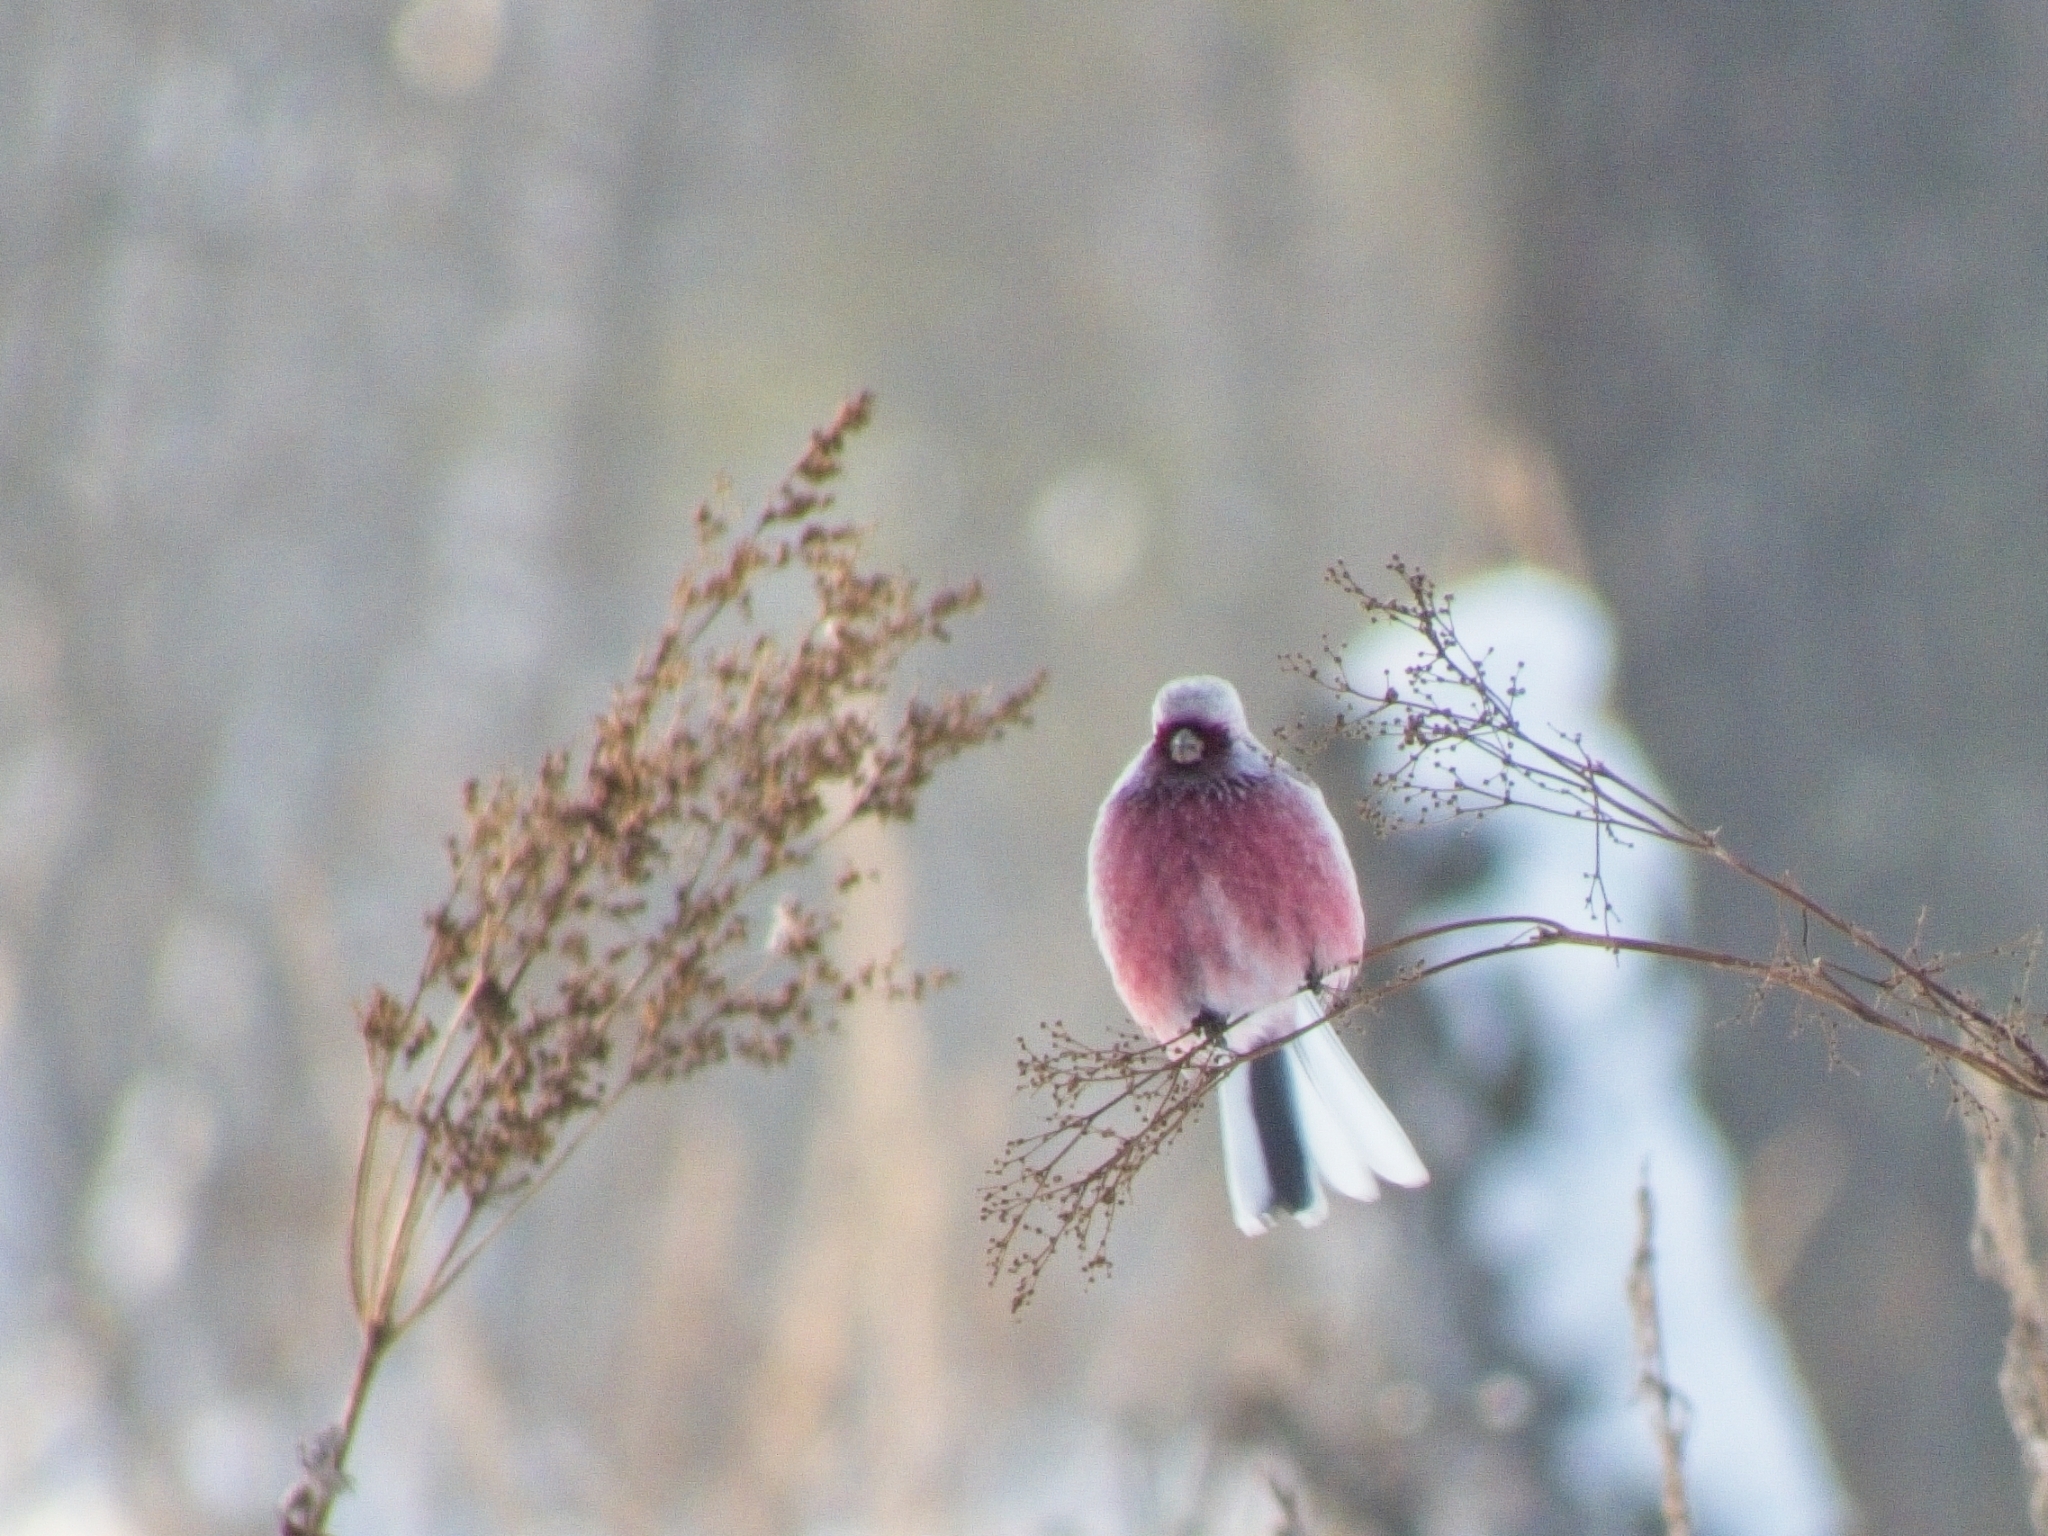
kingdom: Animalia
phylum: Chordata
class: Aves
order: Passeriformes
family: Fringillidae
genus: Carpodacus
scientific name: Carpodacus sibiricus
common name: Long-tailed rosefinch
